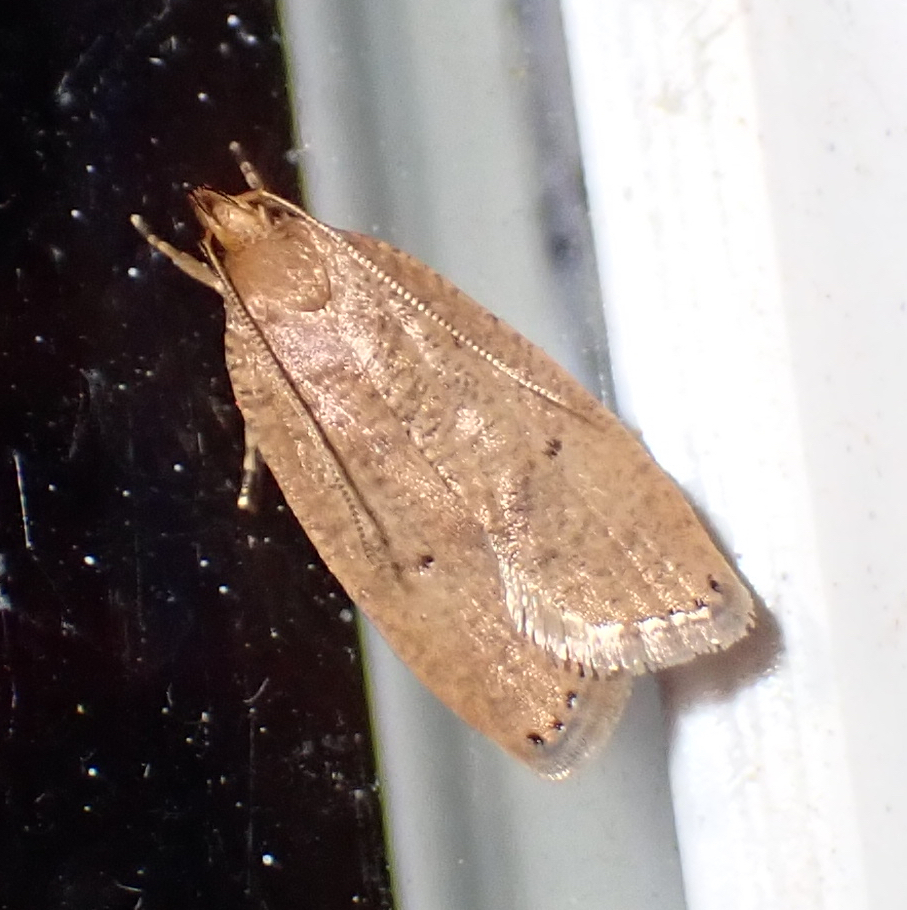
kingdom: Animalia
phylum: Arthropoda
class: Insecta
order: Lepidoptera
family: Depressariidae
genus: Psilocorsis
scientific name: Psilocorsis reflexella
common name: Dotted leaftier moth
